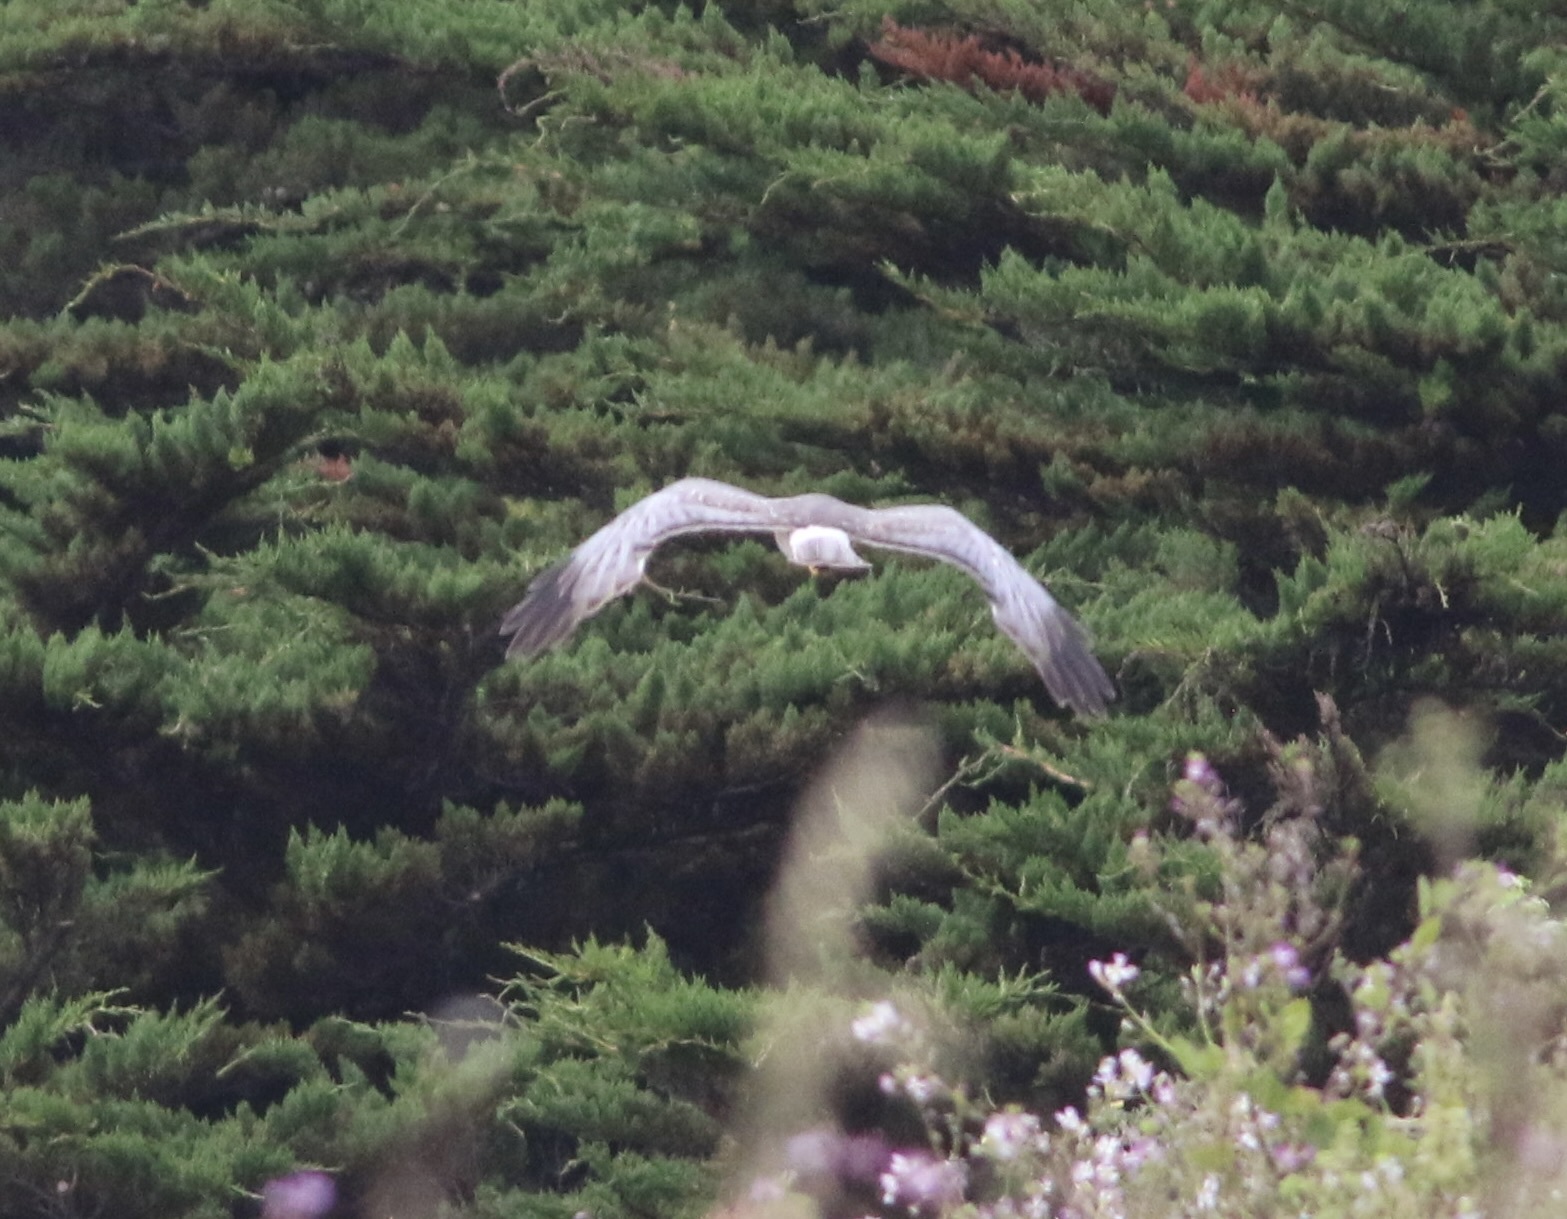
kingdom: Animalia
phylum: Chordata
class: Aves
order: Accipitriformes
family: Accipitridae
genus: Circus
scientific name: Circus cyaneus
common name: Hen harrier
